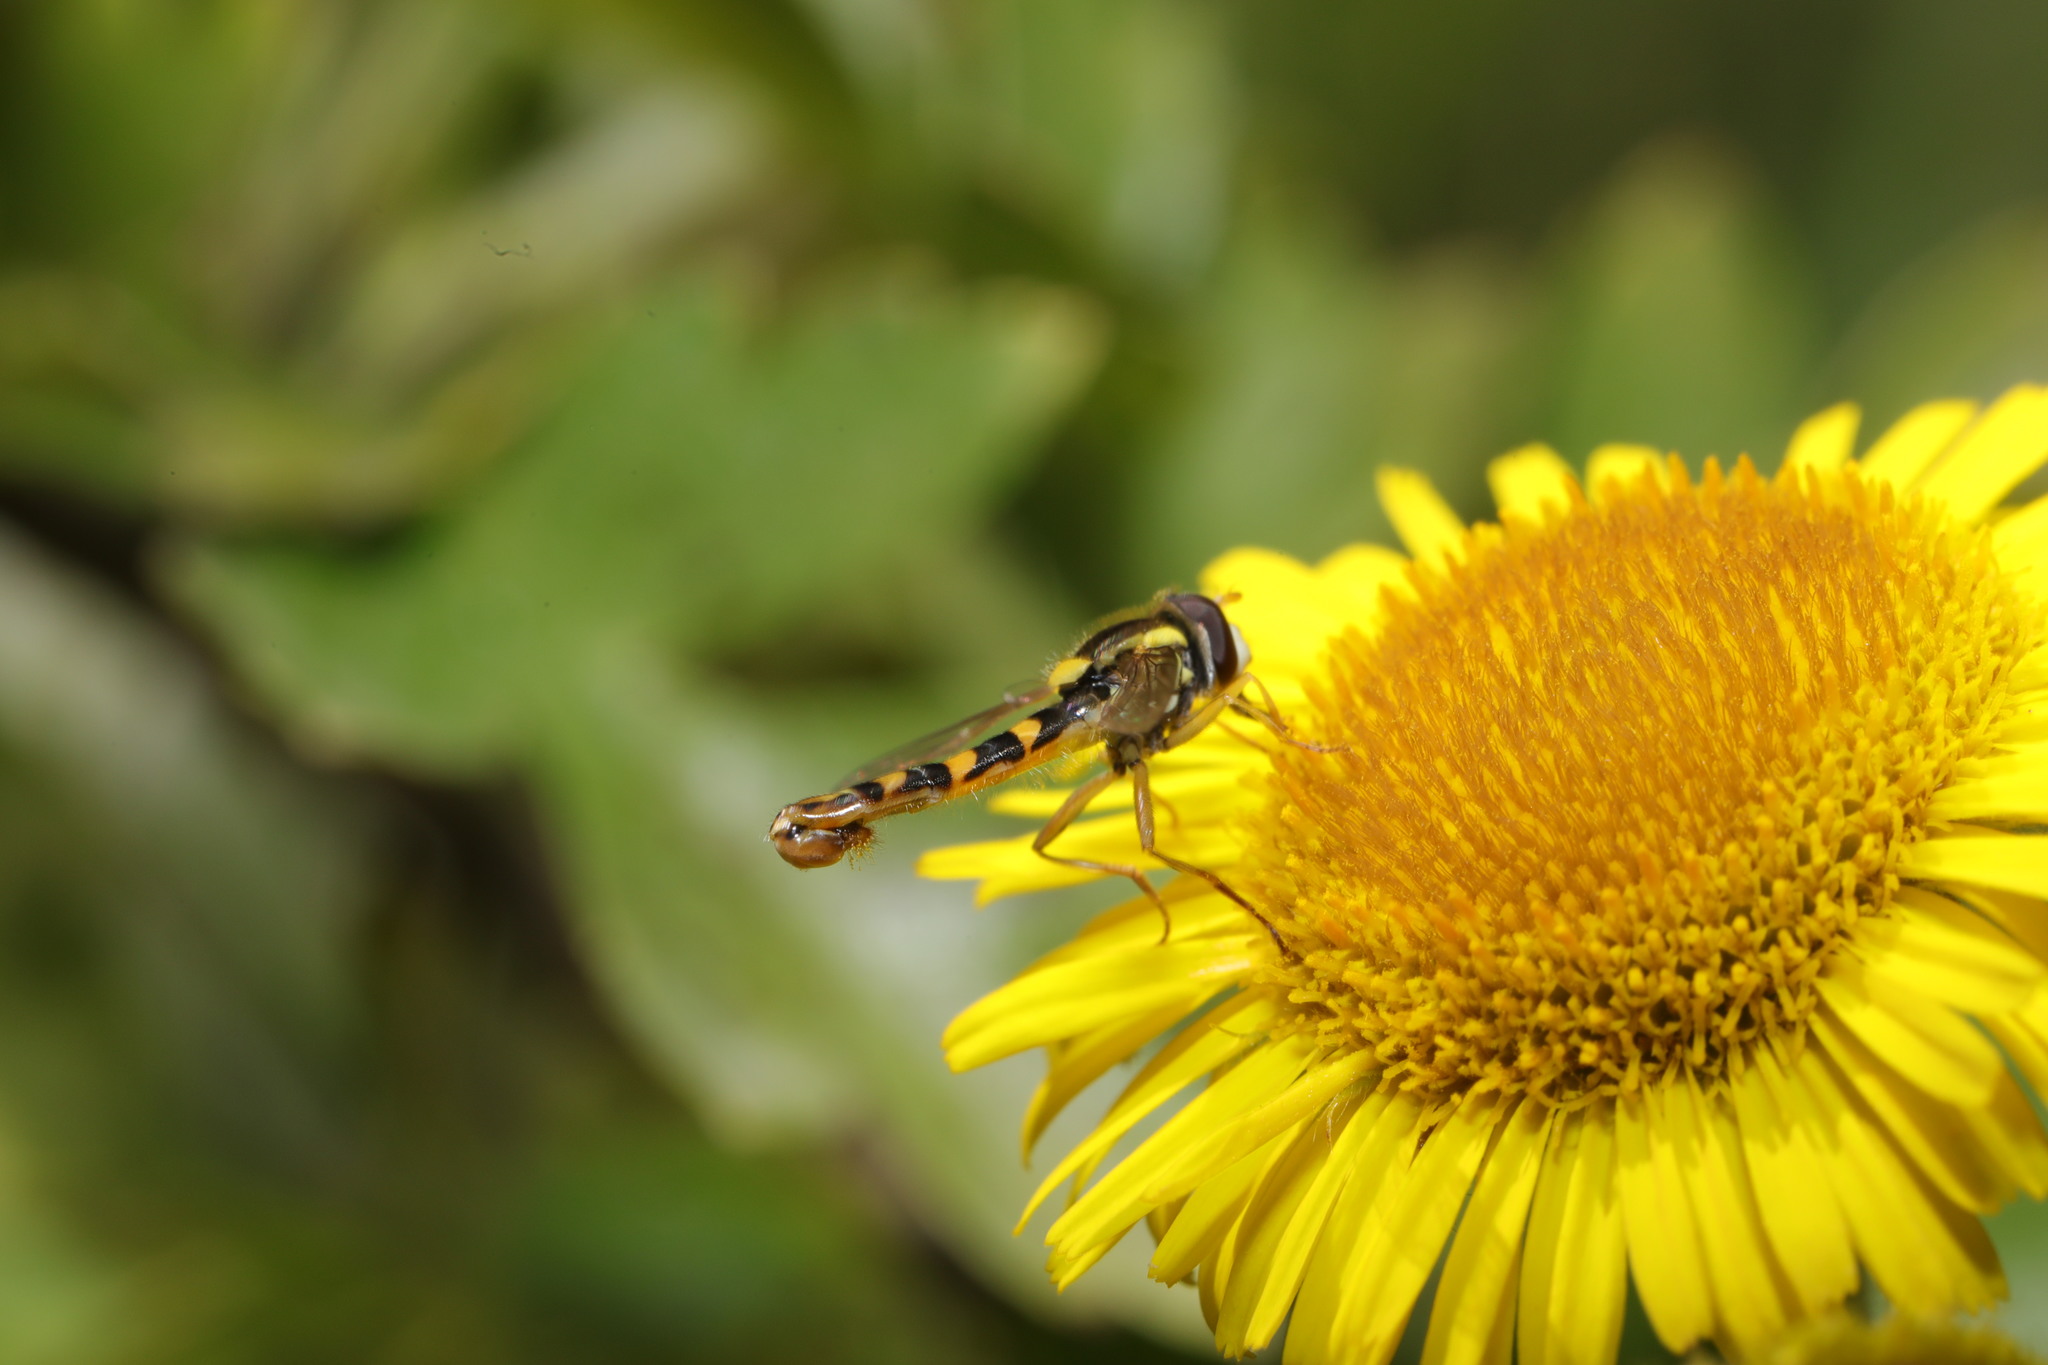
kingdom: Animalia
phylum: Arthropoda
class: Insecta
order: Diptera
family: Syrphidae
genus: Sphaerophoria
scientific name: Sphaerophoria scripta
